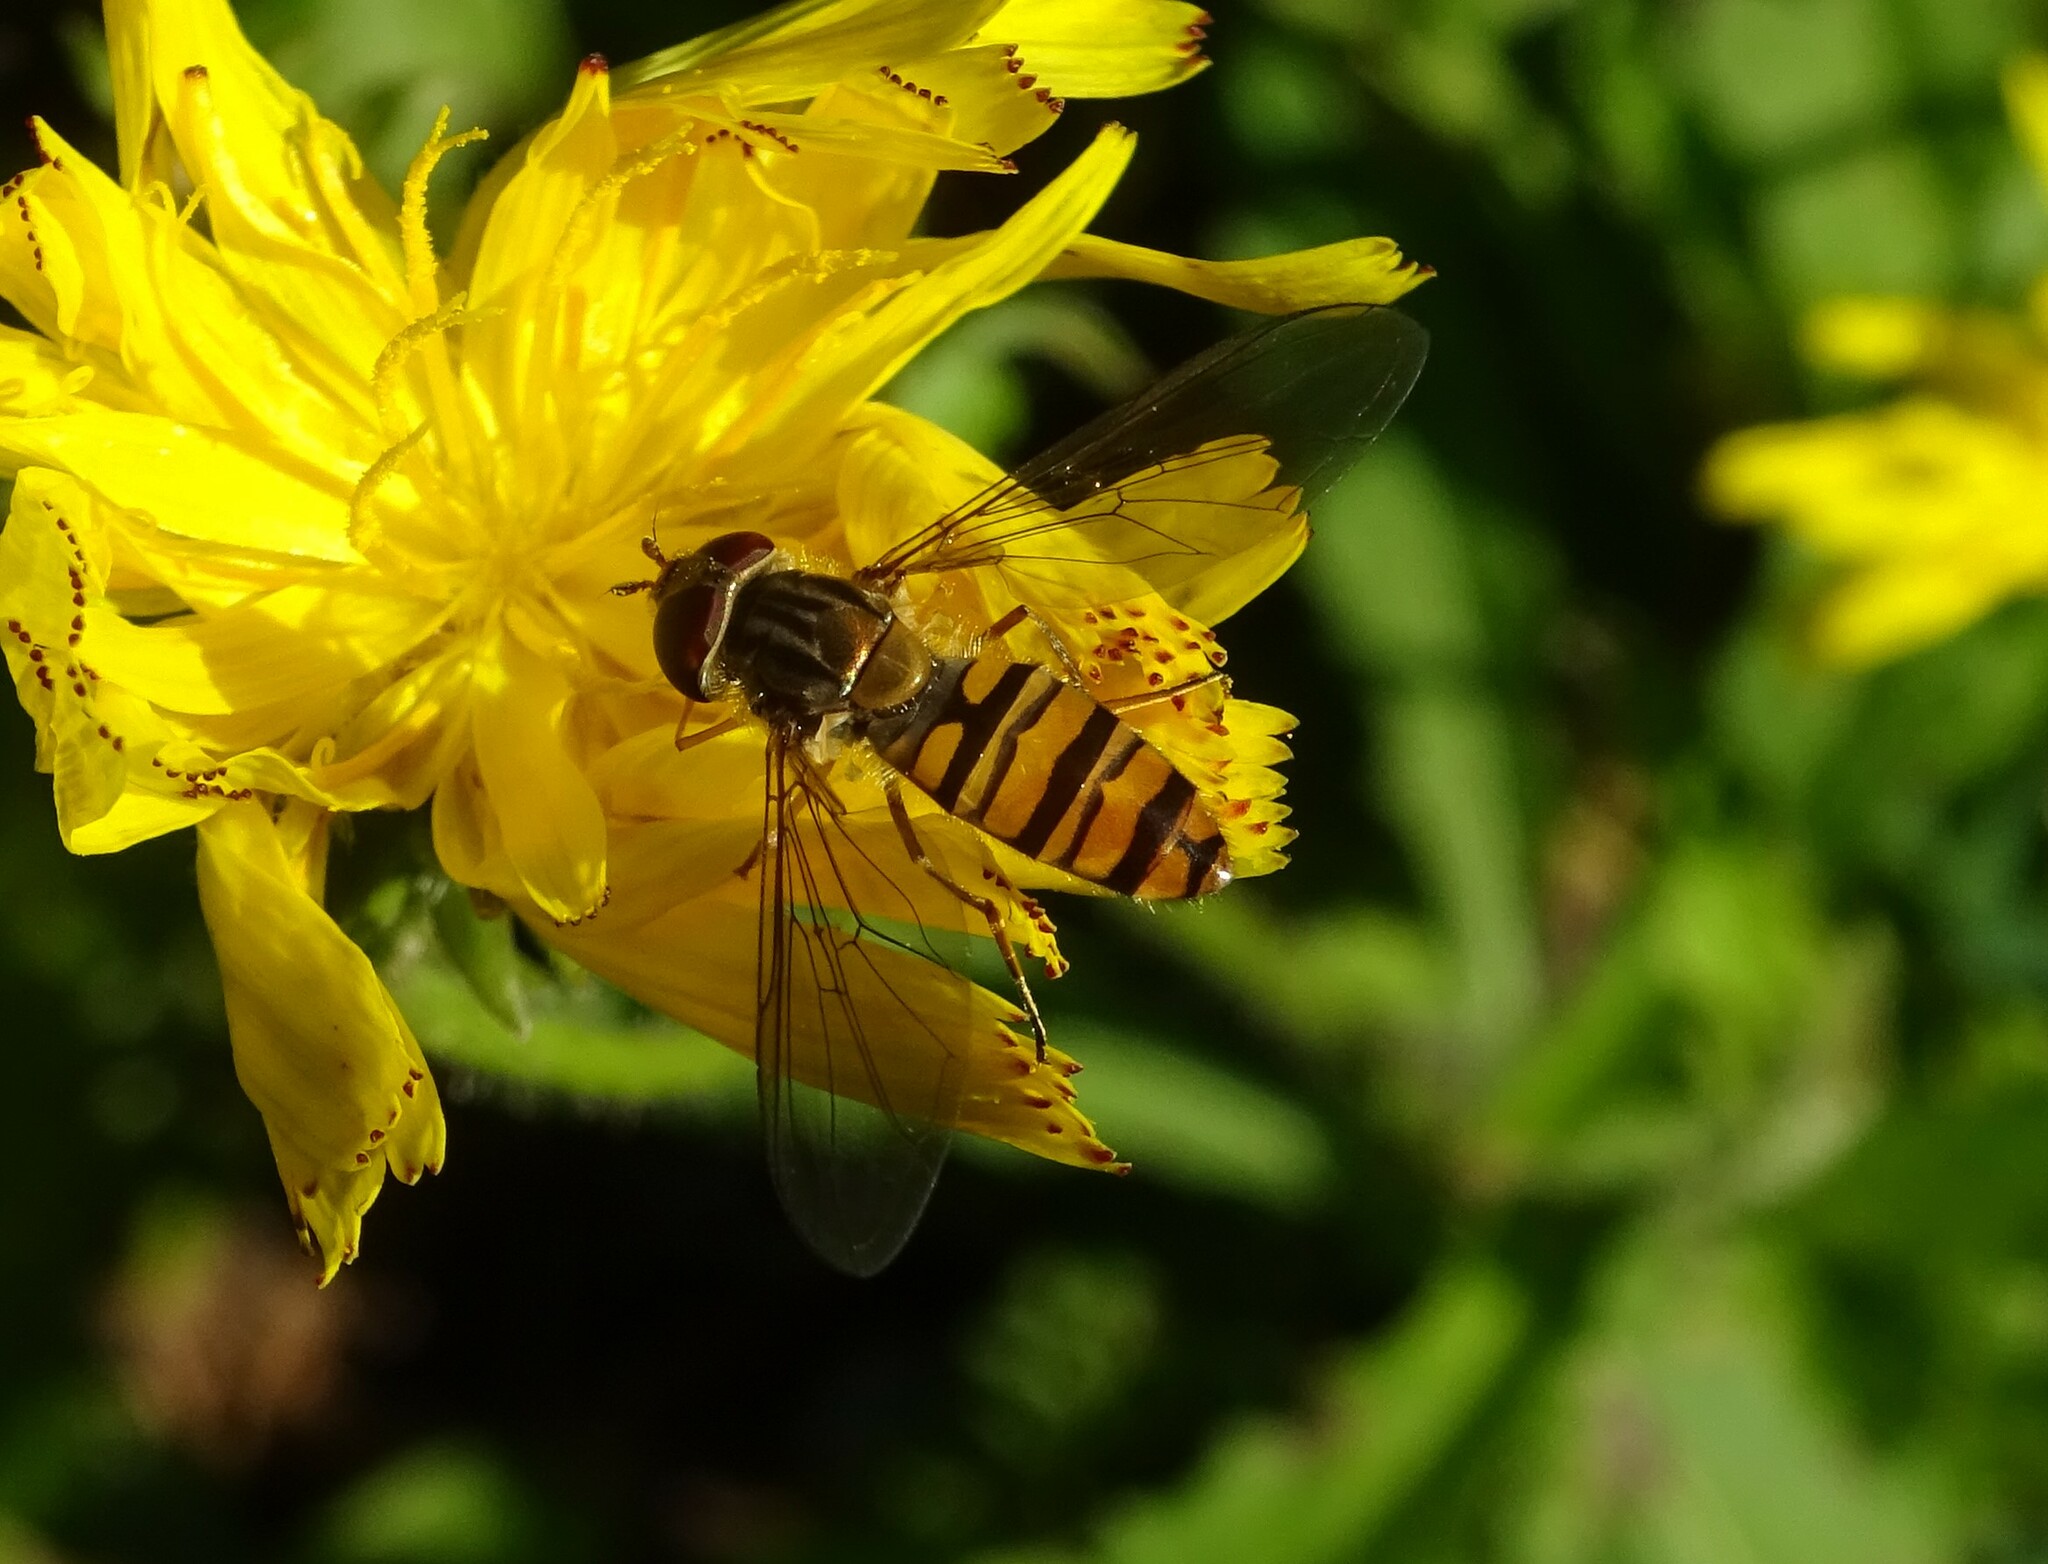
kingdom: Animalia
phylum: Arthropoda
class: Insecta
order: Diptera
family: Syrphidae
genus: Episyrphus
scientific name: Episyrphus balteatus
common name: Marmalade hoverfly
